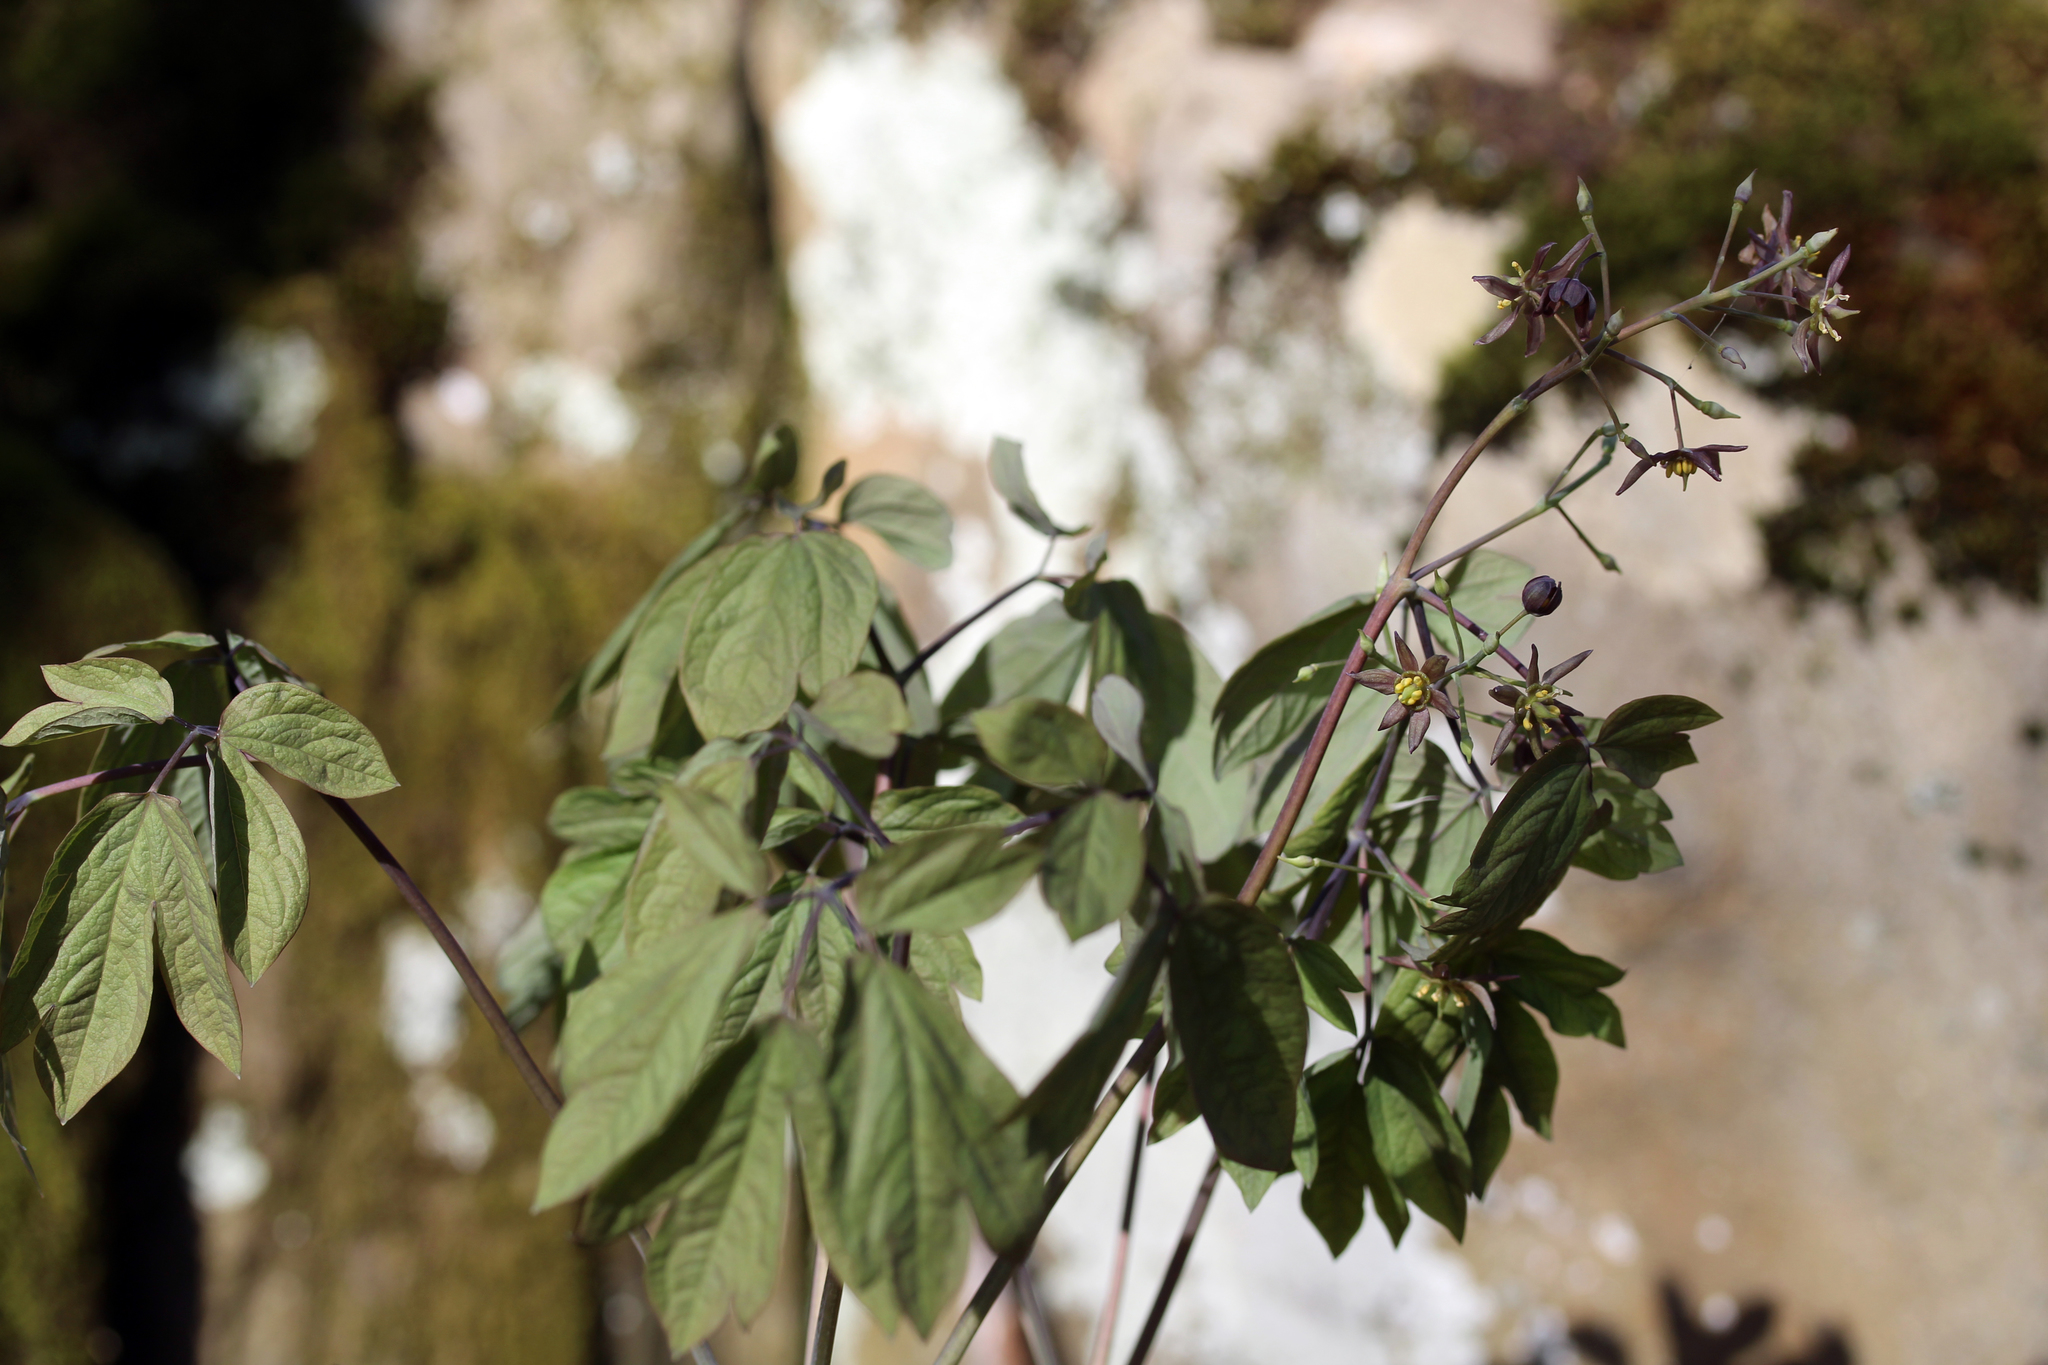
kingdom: Plantae
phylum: Tracheophyta
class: Magnoliopsida
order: Ranunculales
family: Berberidaceae
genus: Caulophyllum
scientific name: Caulophyllum giganteum
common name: Blue cohosh
